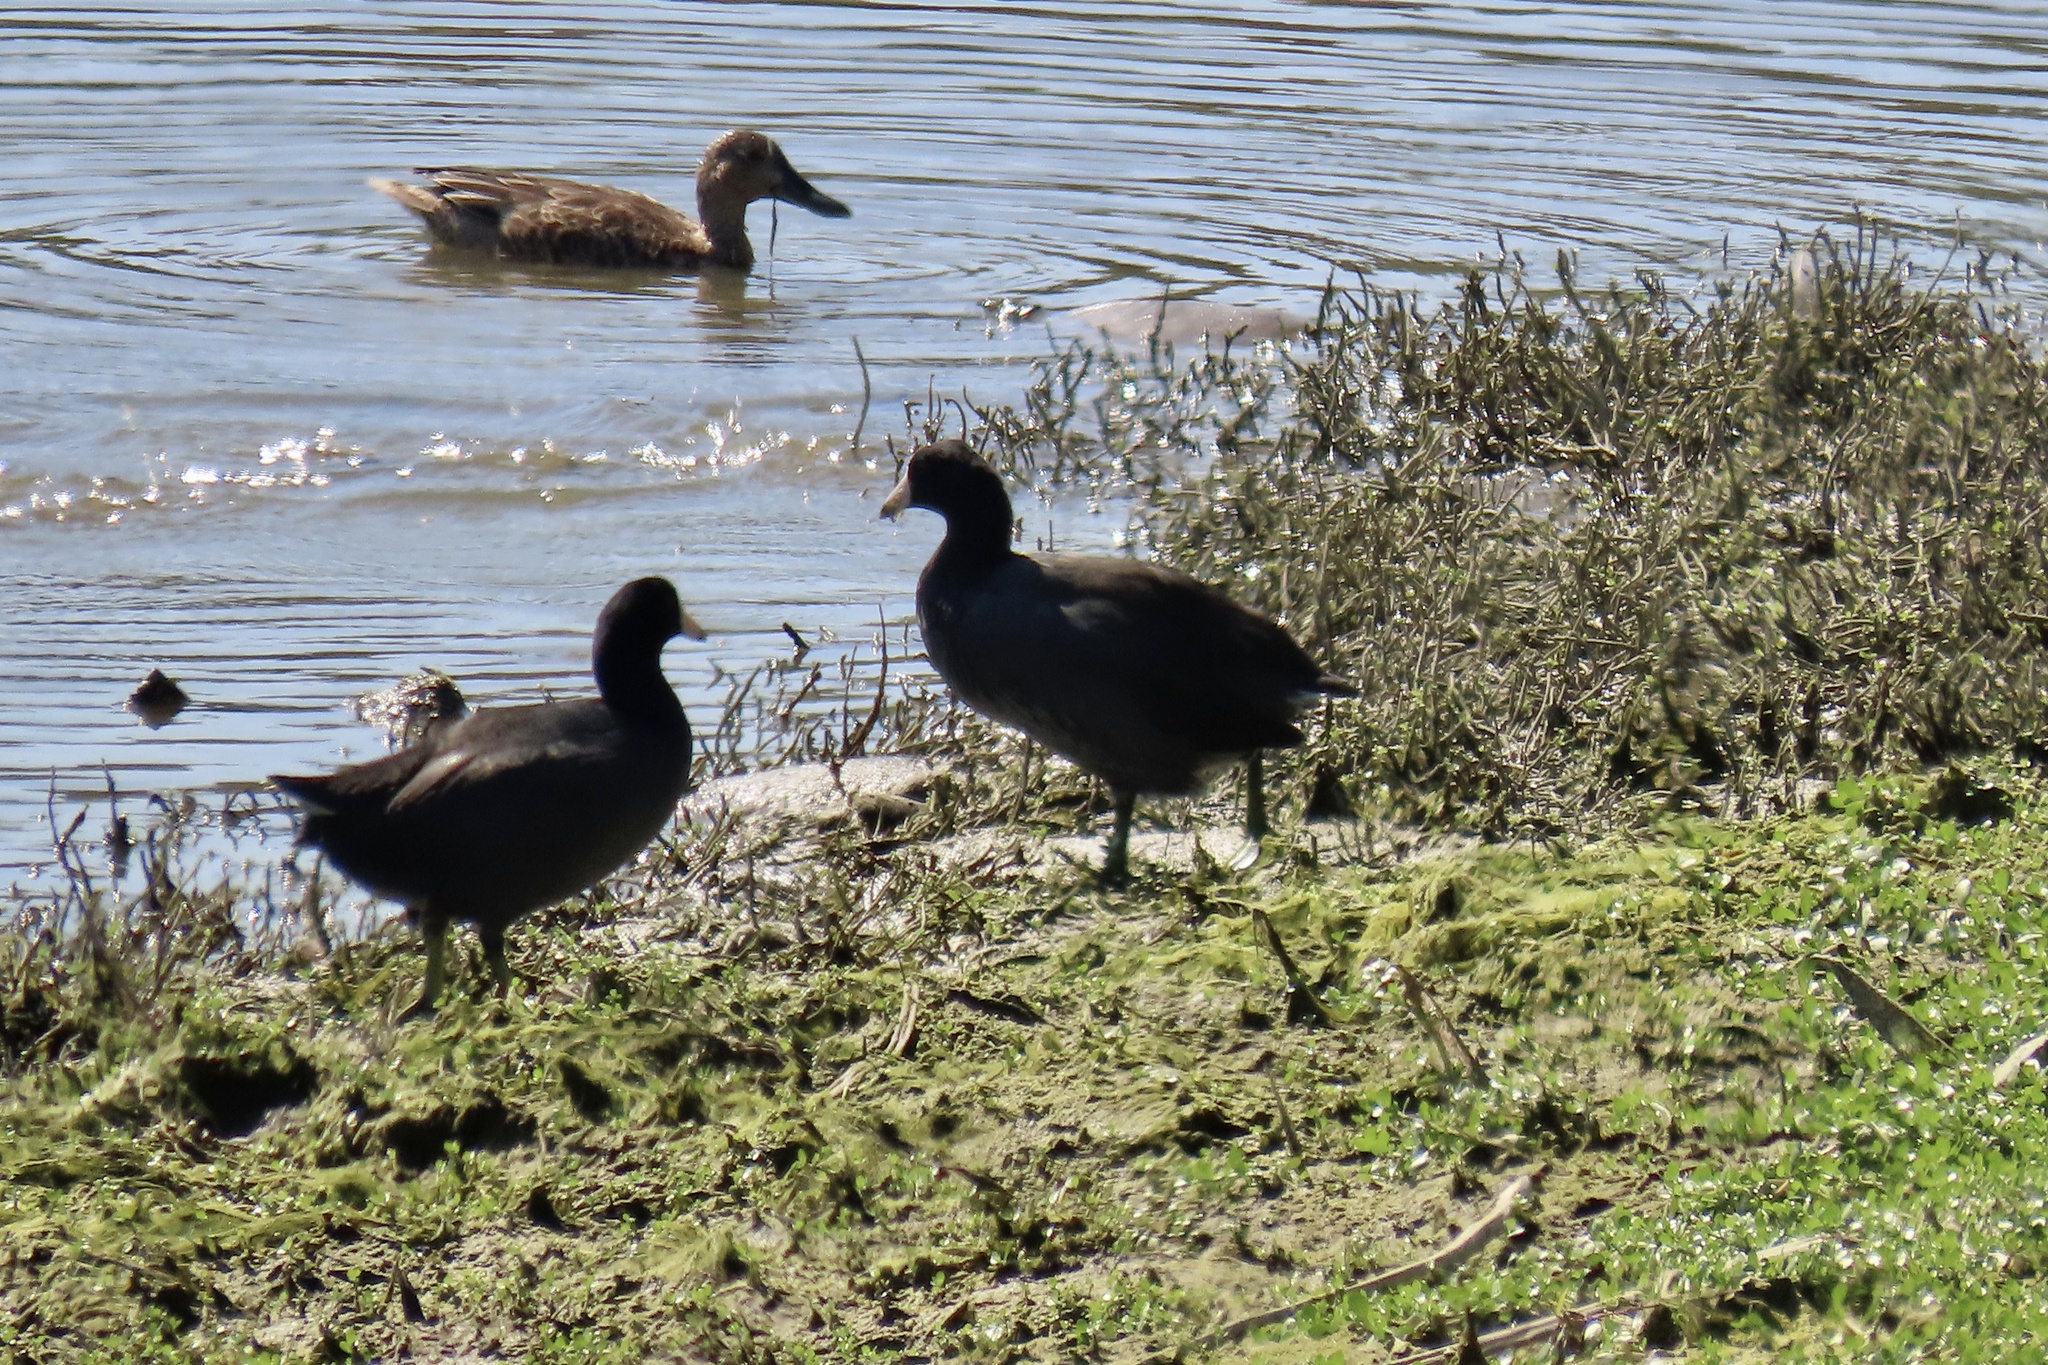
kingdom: Animalia
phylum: Chordata
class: Aves
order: Gruiformes
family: Rallidae
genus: Fulica
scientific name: Fulica americana
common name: American coot
